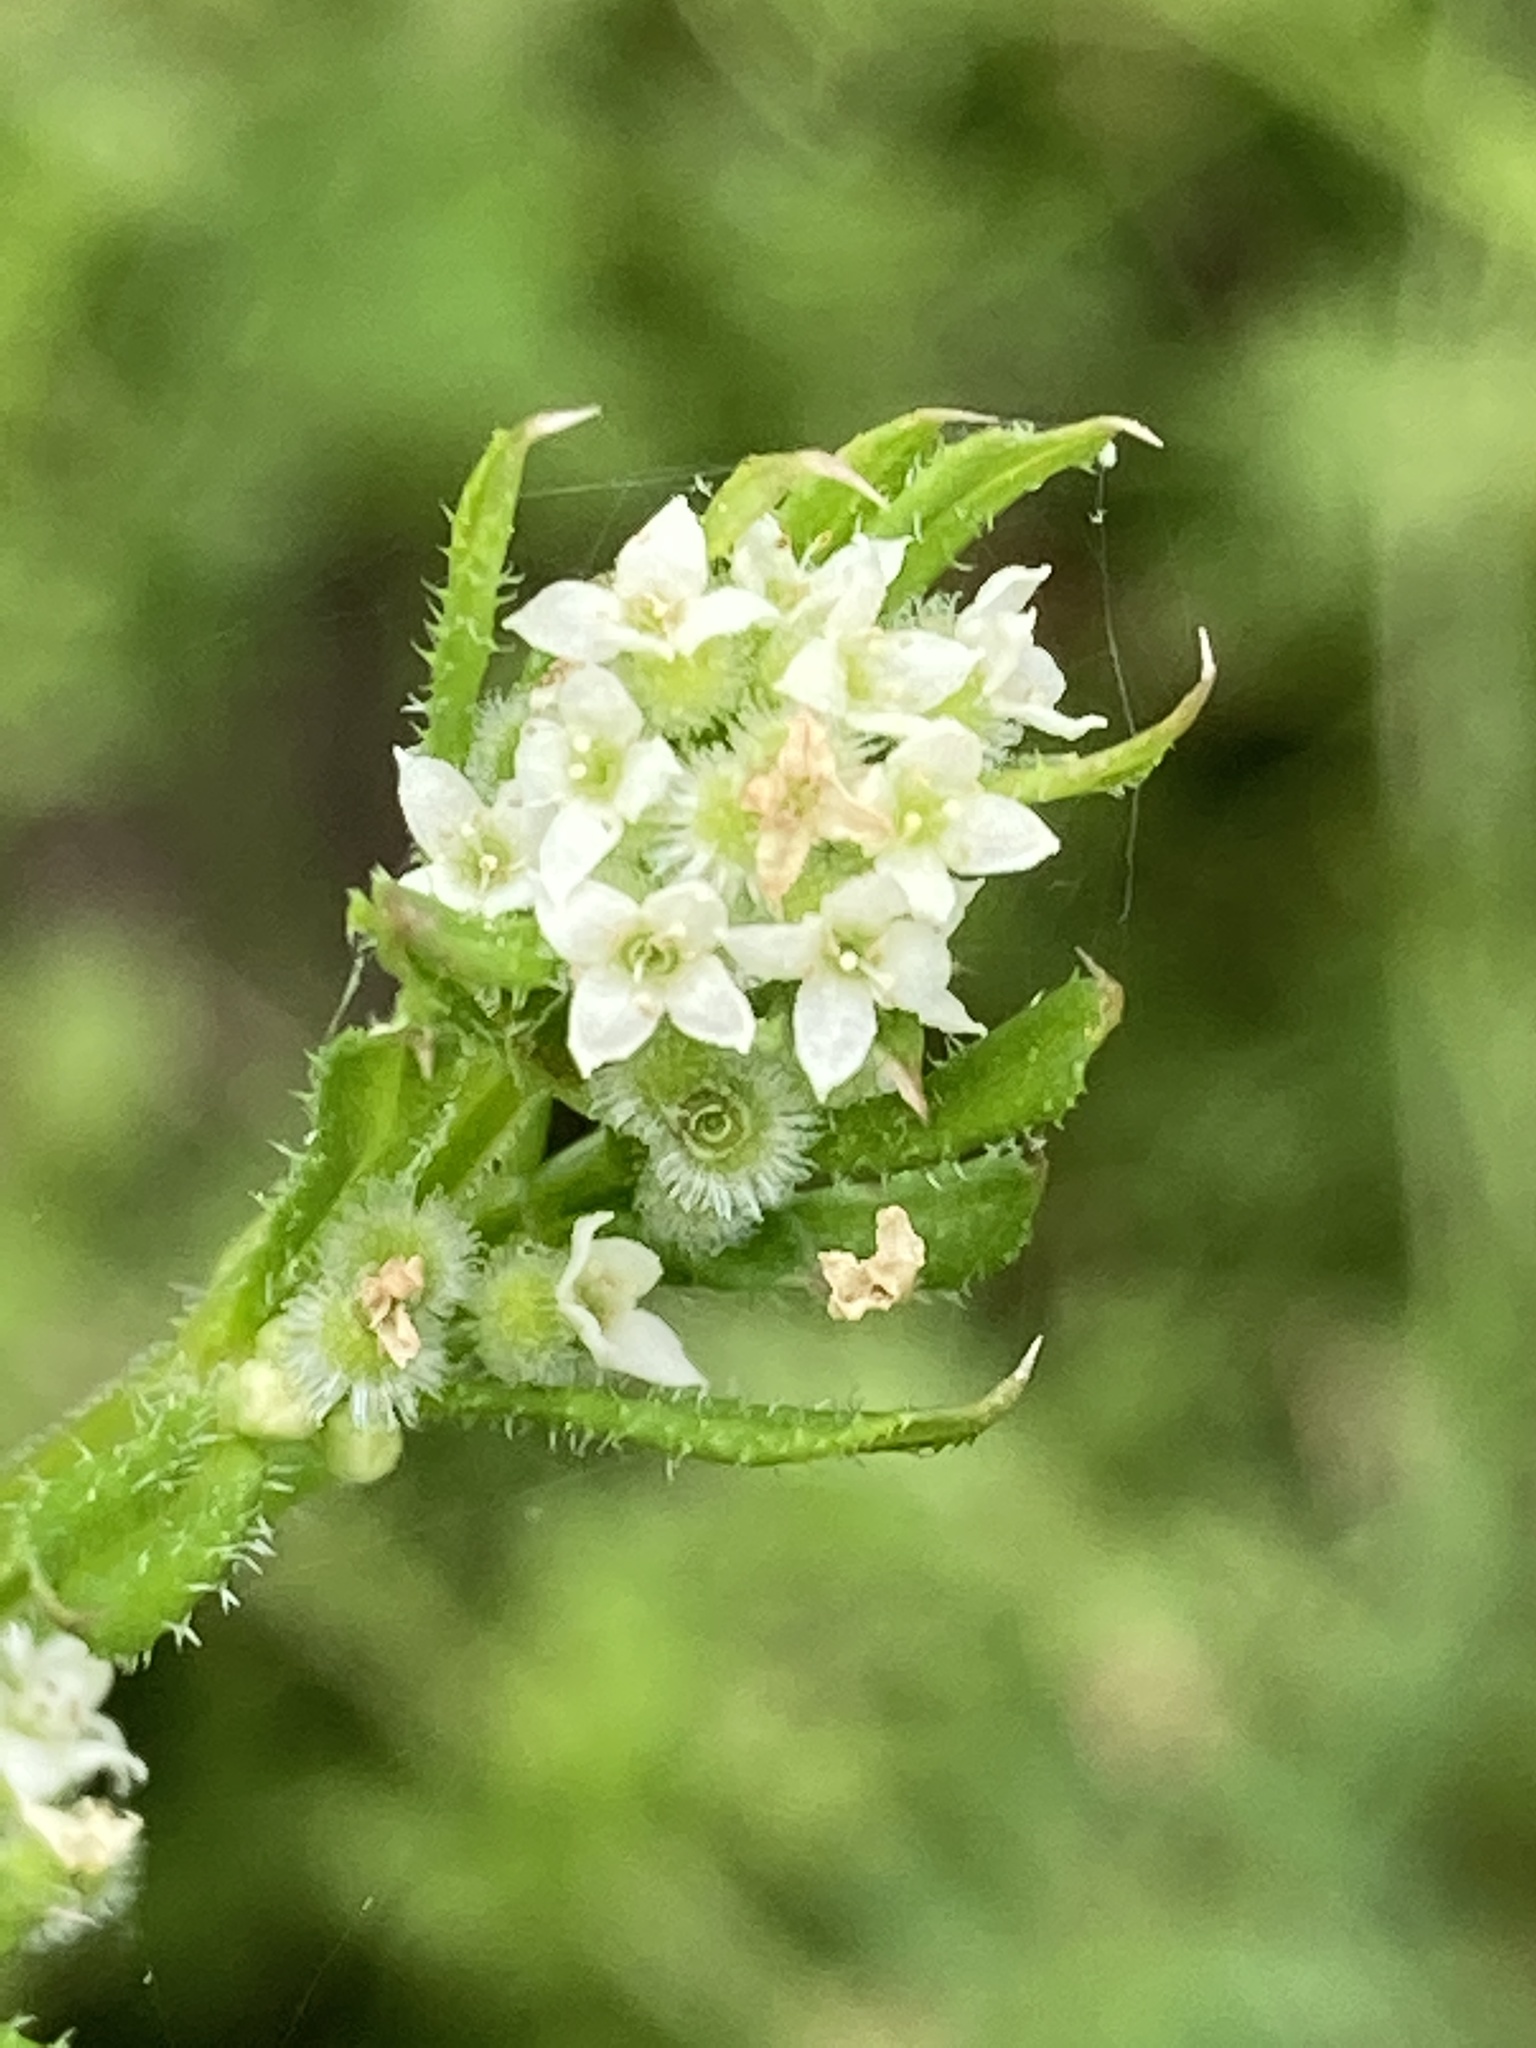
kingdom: Plantae
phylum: Tracheophyta
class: Magnoliopsida
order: Gentianales
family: Rubiaceae
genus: Galium
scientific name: Galium aparine
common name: Cleavers
